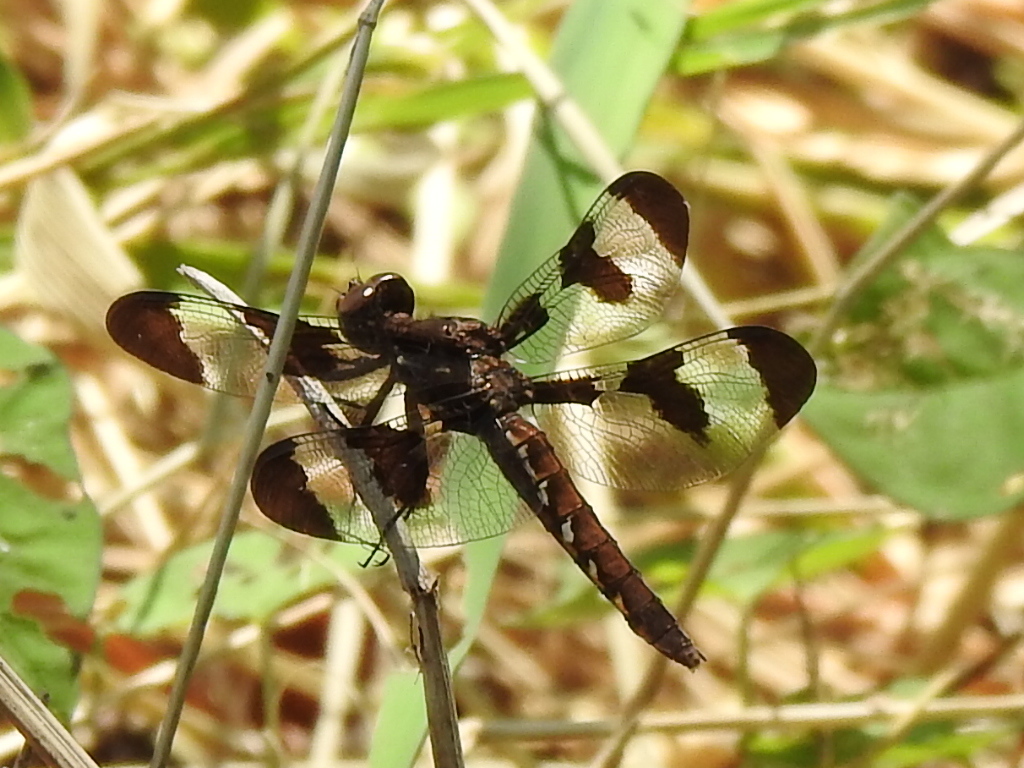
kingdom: Animalia
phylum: Arthropoda
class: Insecta
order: Odonata
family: Libellulidae
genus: Plathemis
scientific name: Plathemis lydia
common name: Common whitetail
